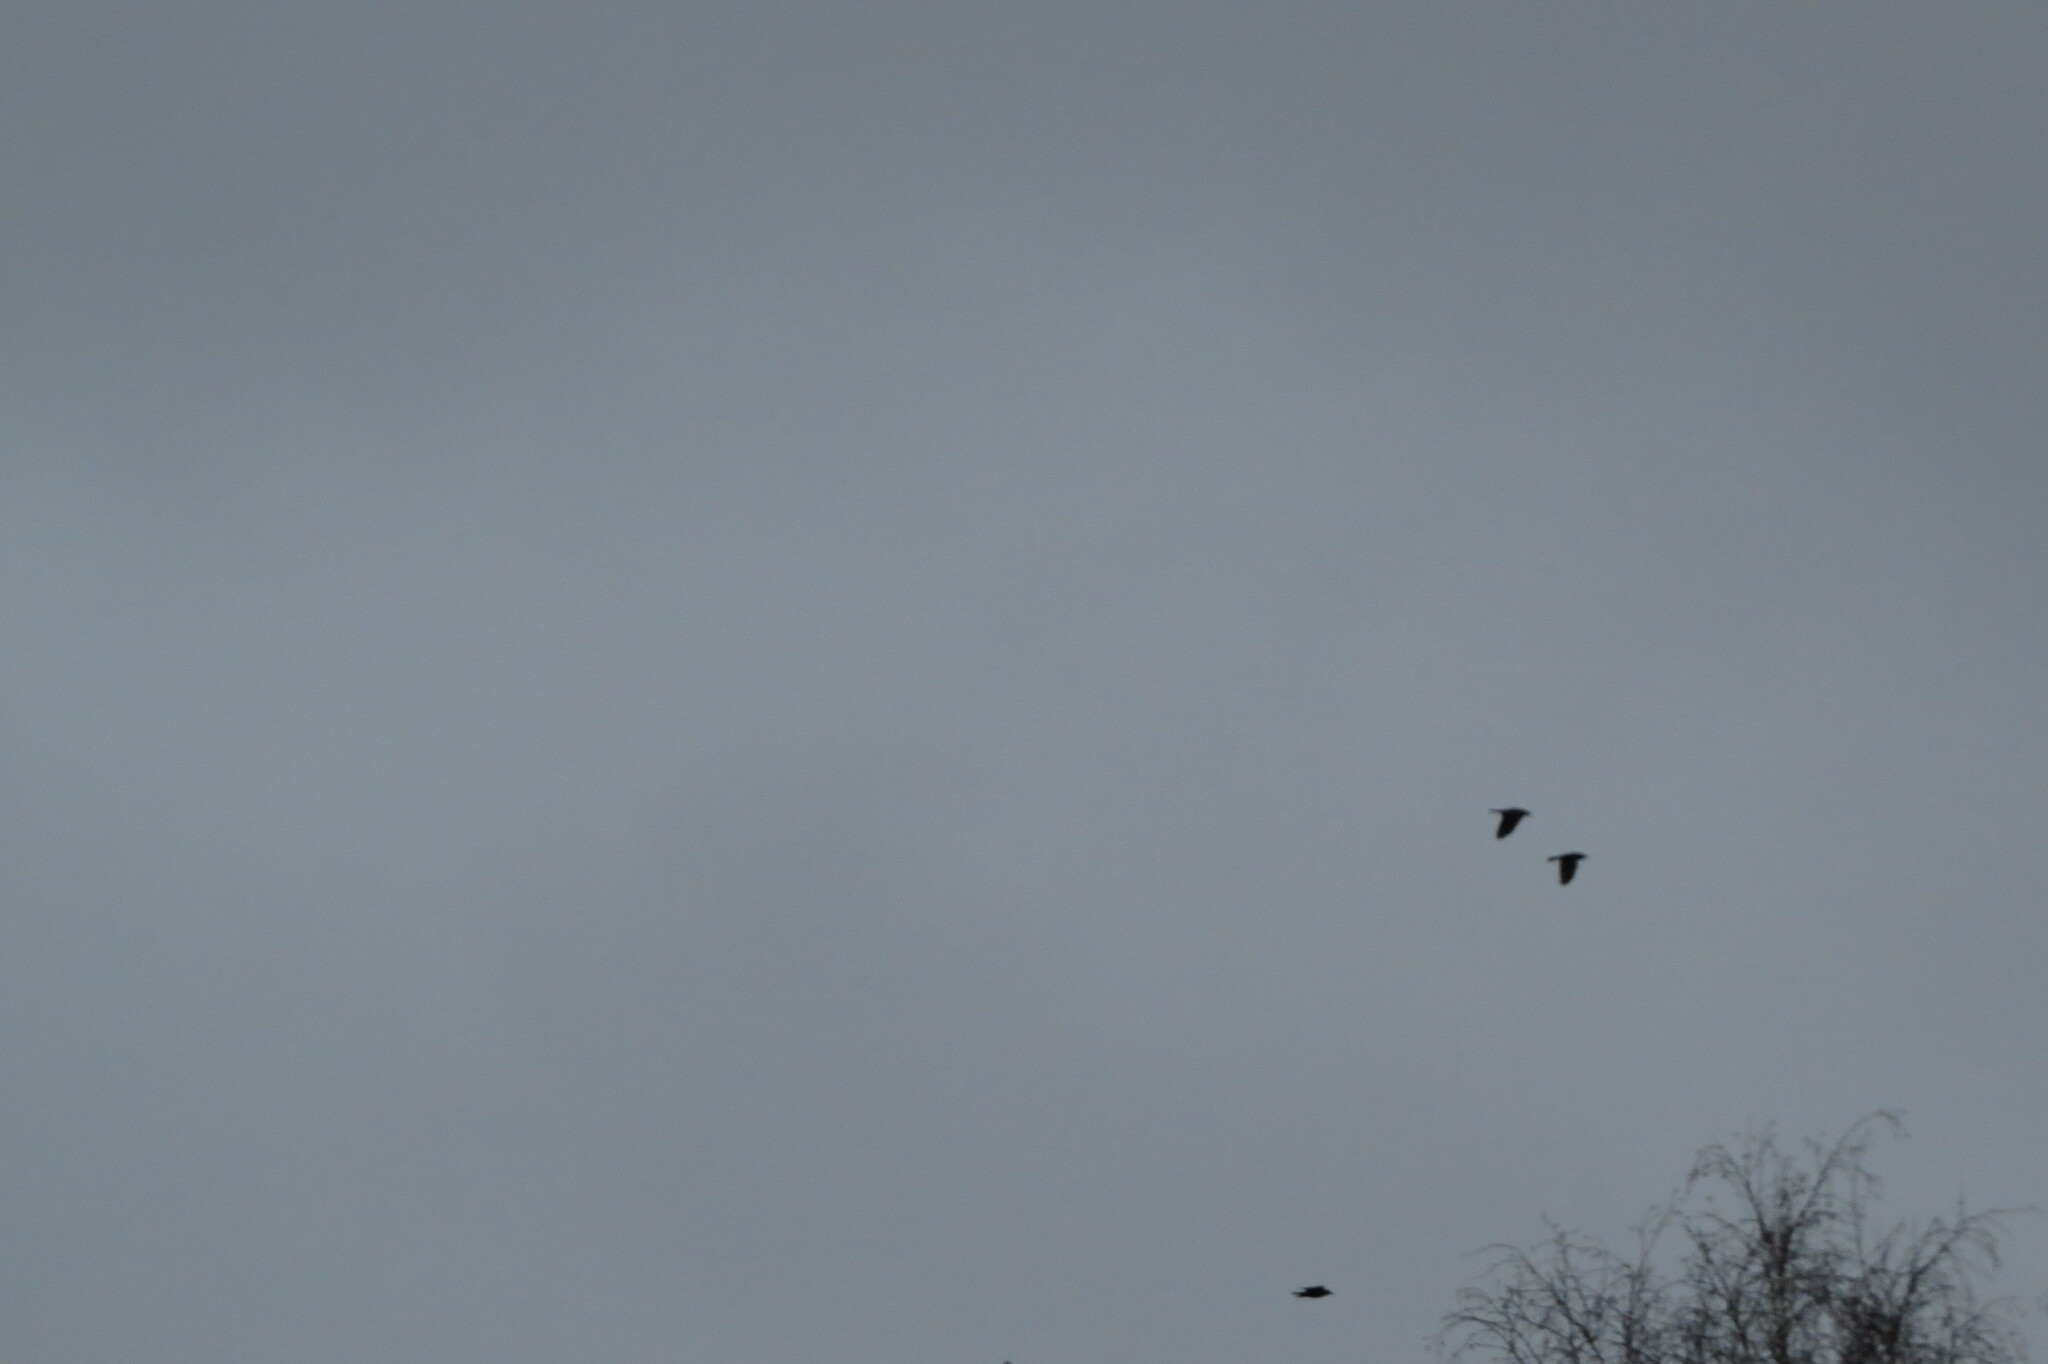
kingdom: Animalia
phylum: Chordata
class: Aves
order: Passeriformes
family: Corvidae
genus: Coloeus
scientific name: Coloeus monedula
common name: Western jackdaw
